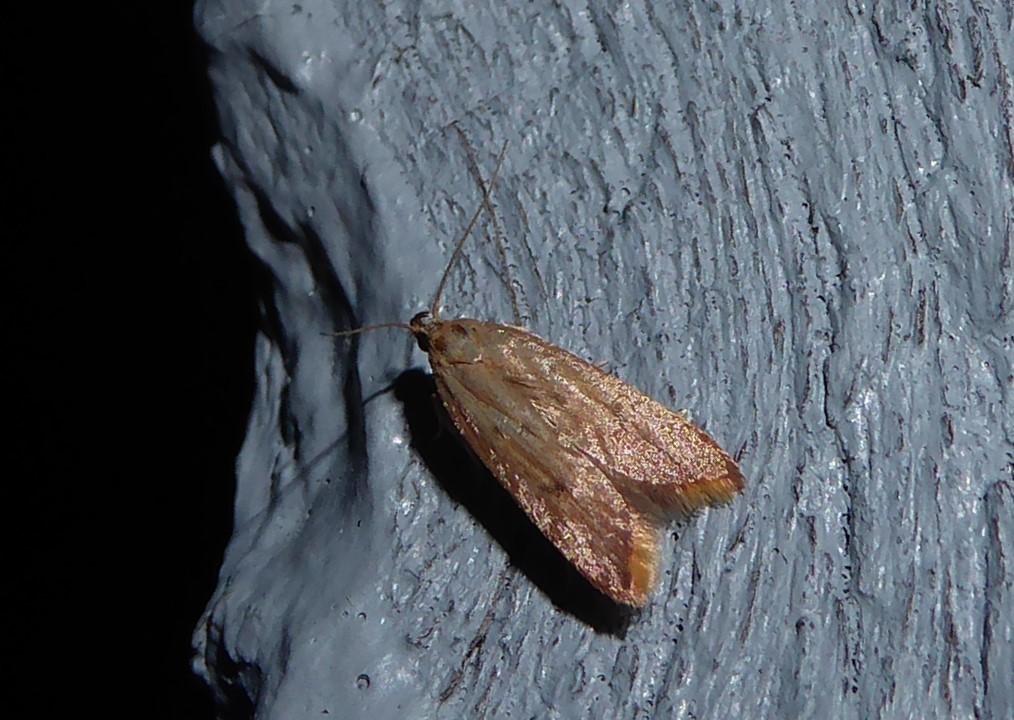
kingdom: Animalia
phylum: Arthropoda
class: Insecta
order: Lepidoptera
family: Oecophoridae
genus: Tachystola
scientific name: Tachystola acroxantha
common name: Ruddy streak
